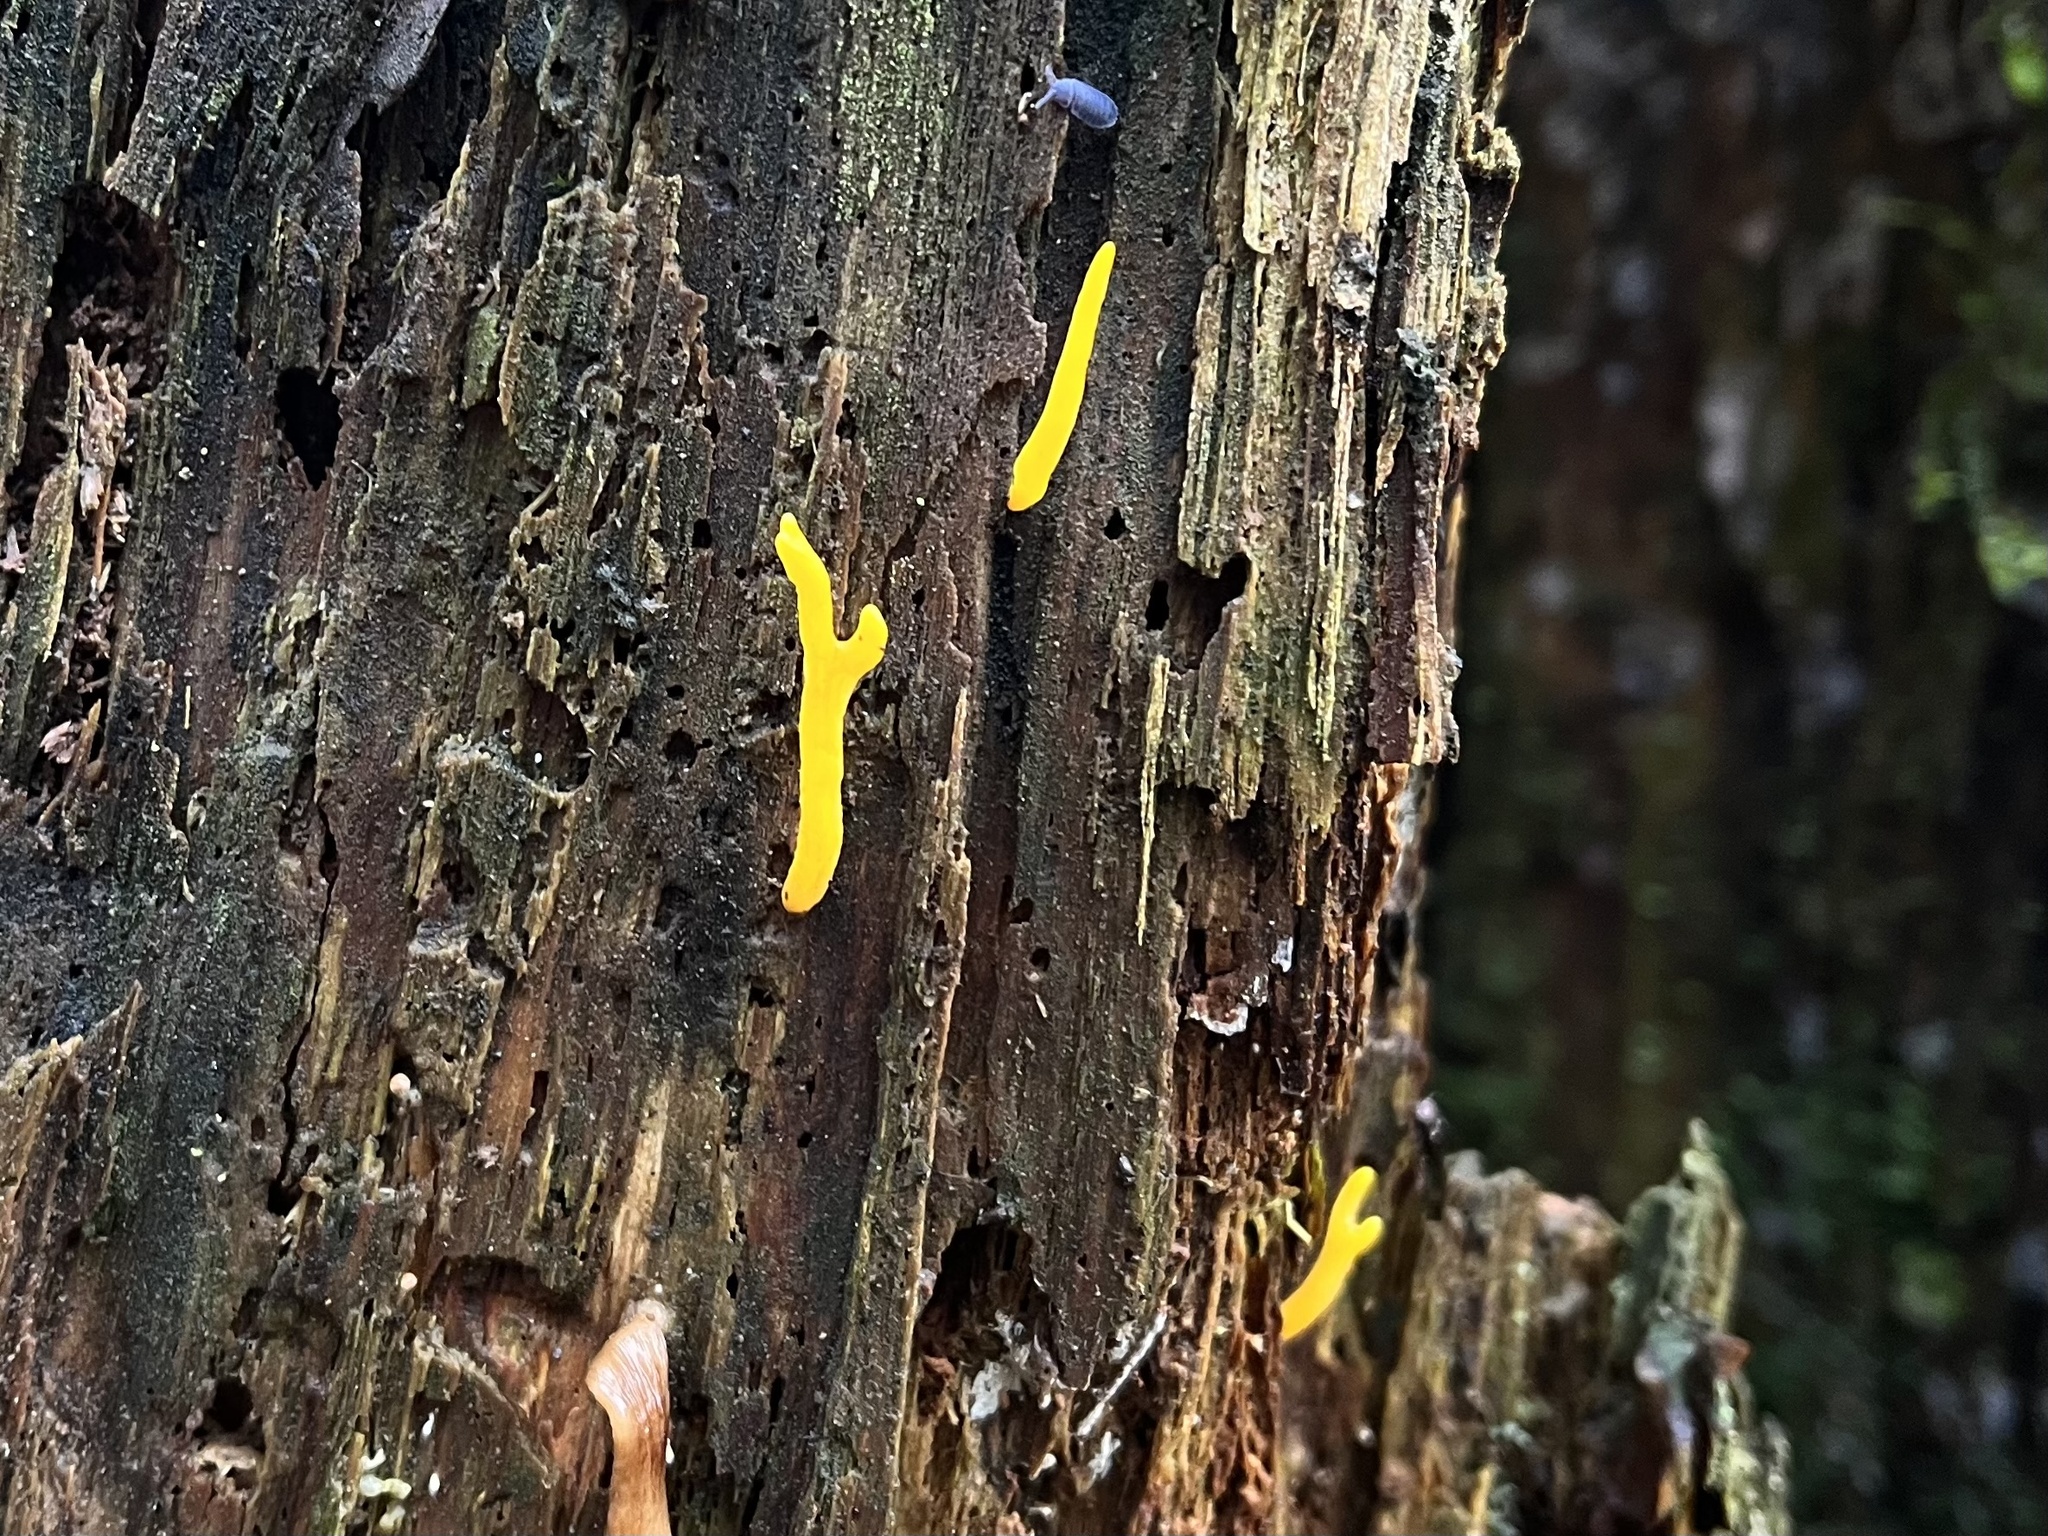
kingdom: Fungi
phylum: Basidiomycota
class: Dacrymycetes
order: Dacrymycetales
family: Dacrymycetaceae
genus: Calocera
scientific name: Calocera viscosa
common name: Yellow stagshorn
